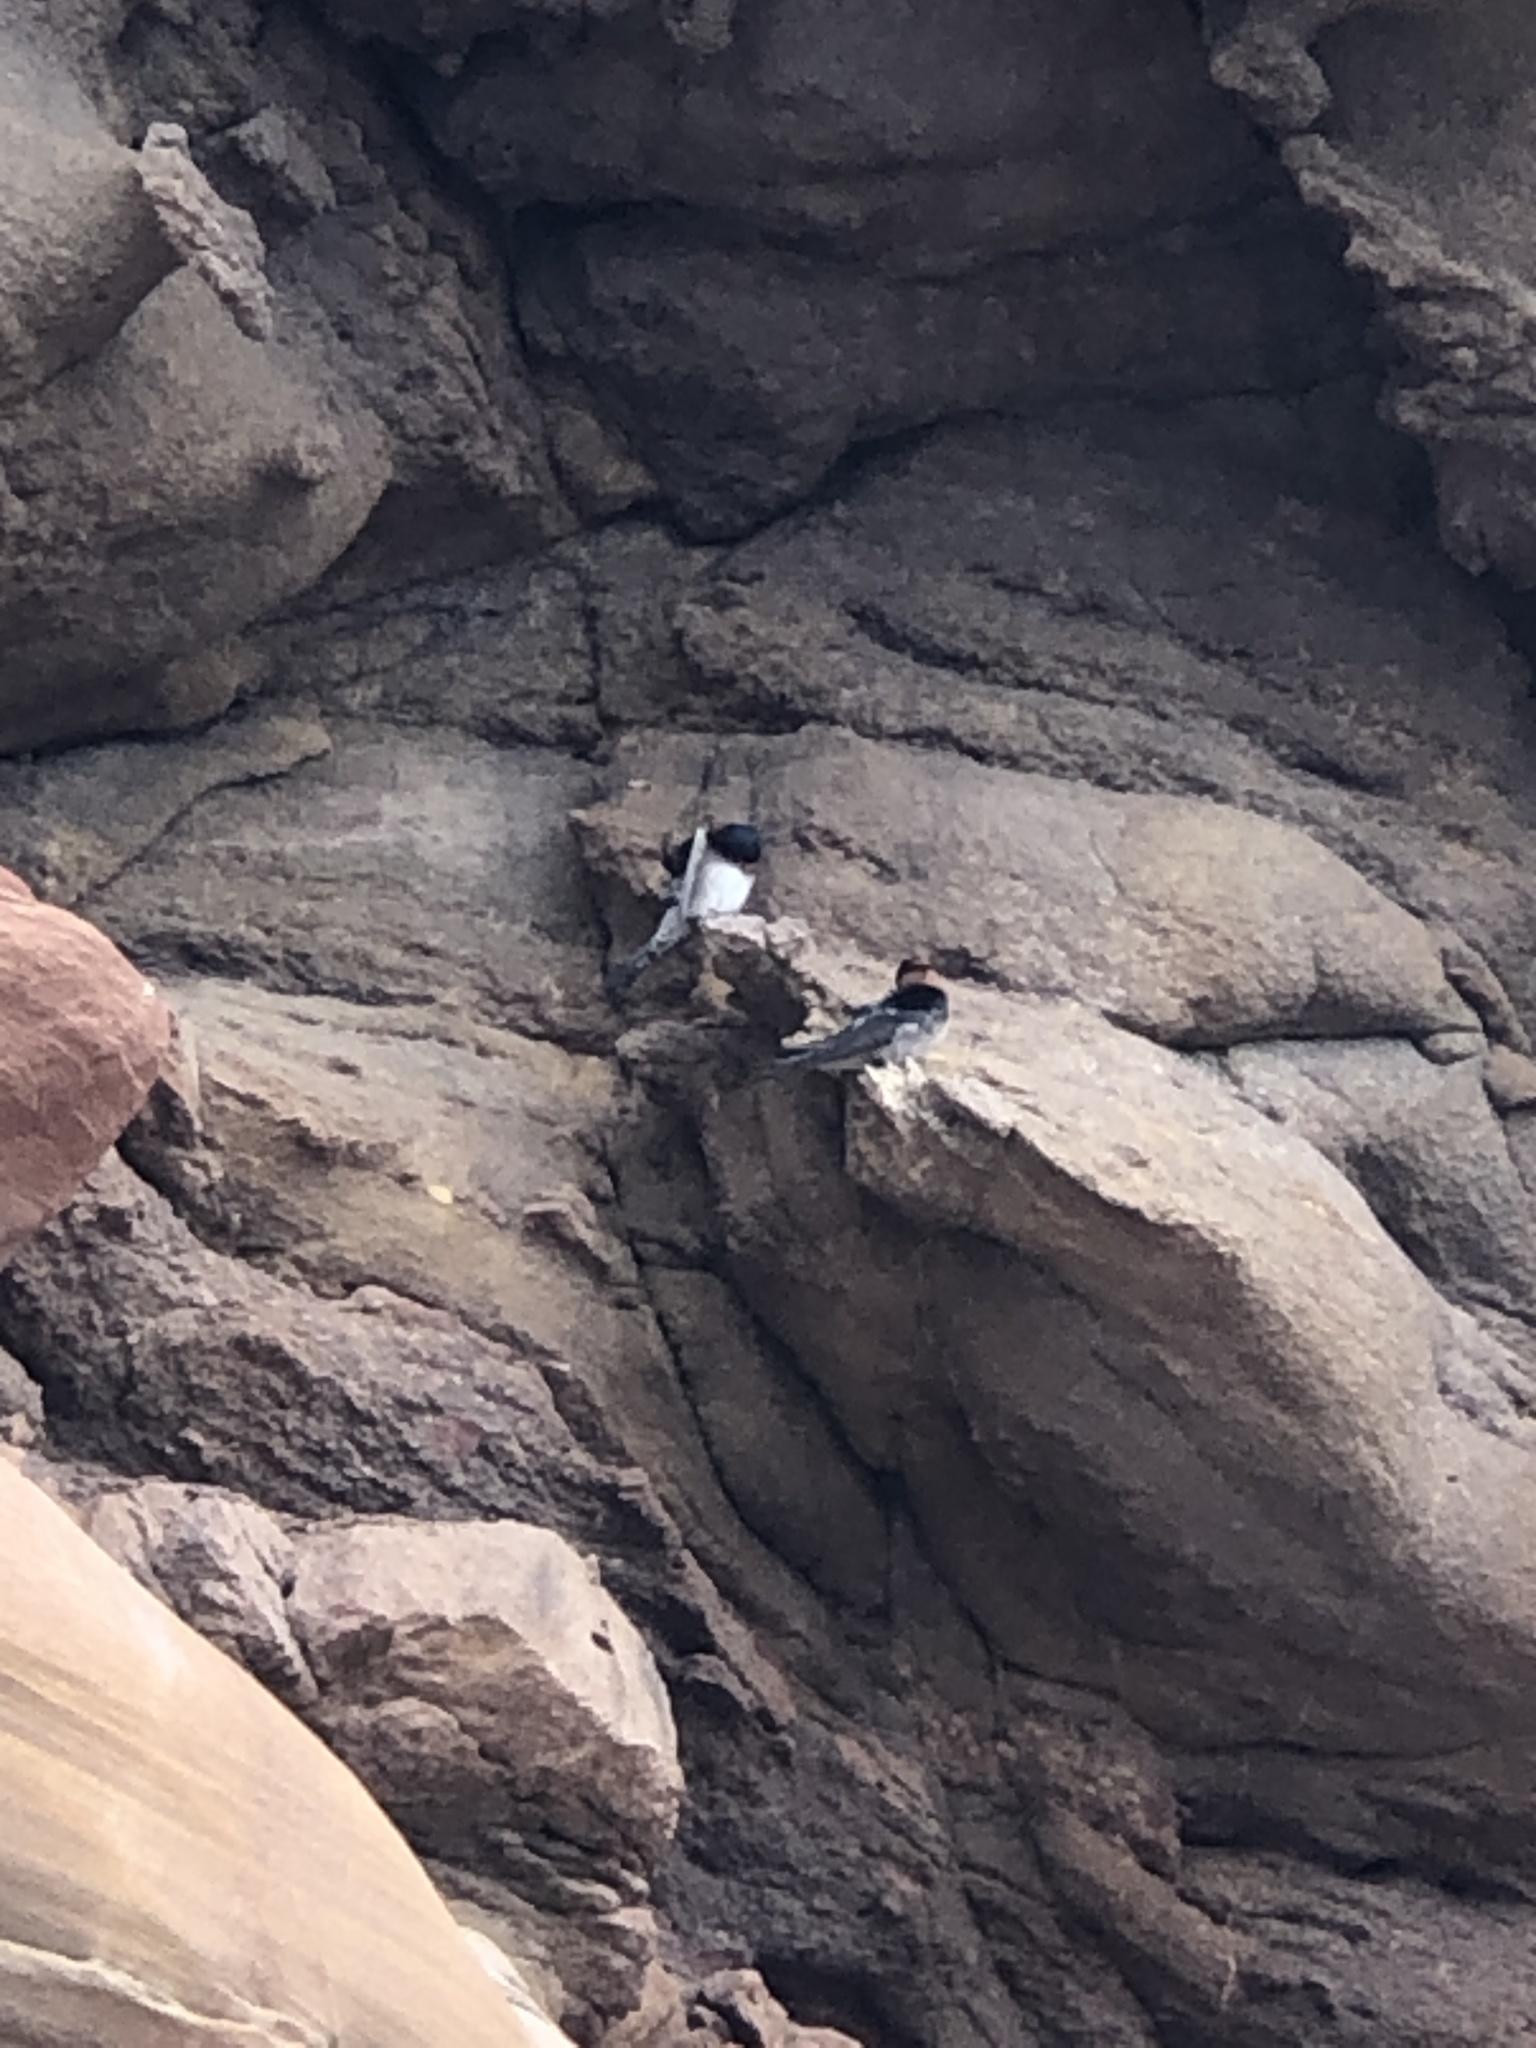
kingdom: Animalia
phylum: Chordata
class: Aves
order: Passeriformes
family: Hirundinidae
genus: Hirundo
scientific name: Hirundo neoxena
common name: Welcome swallow
